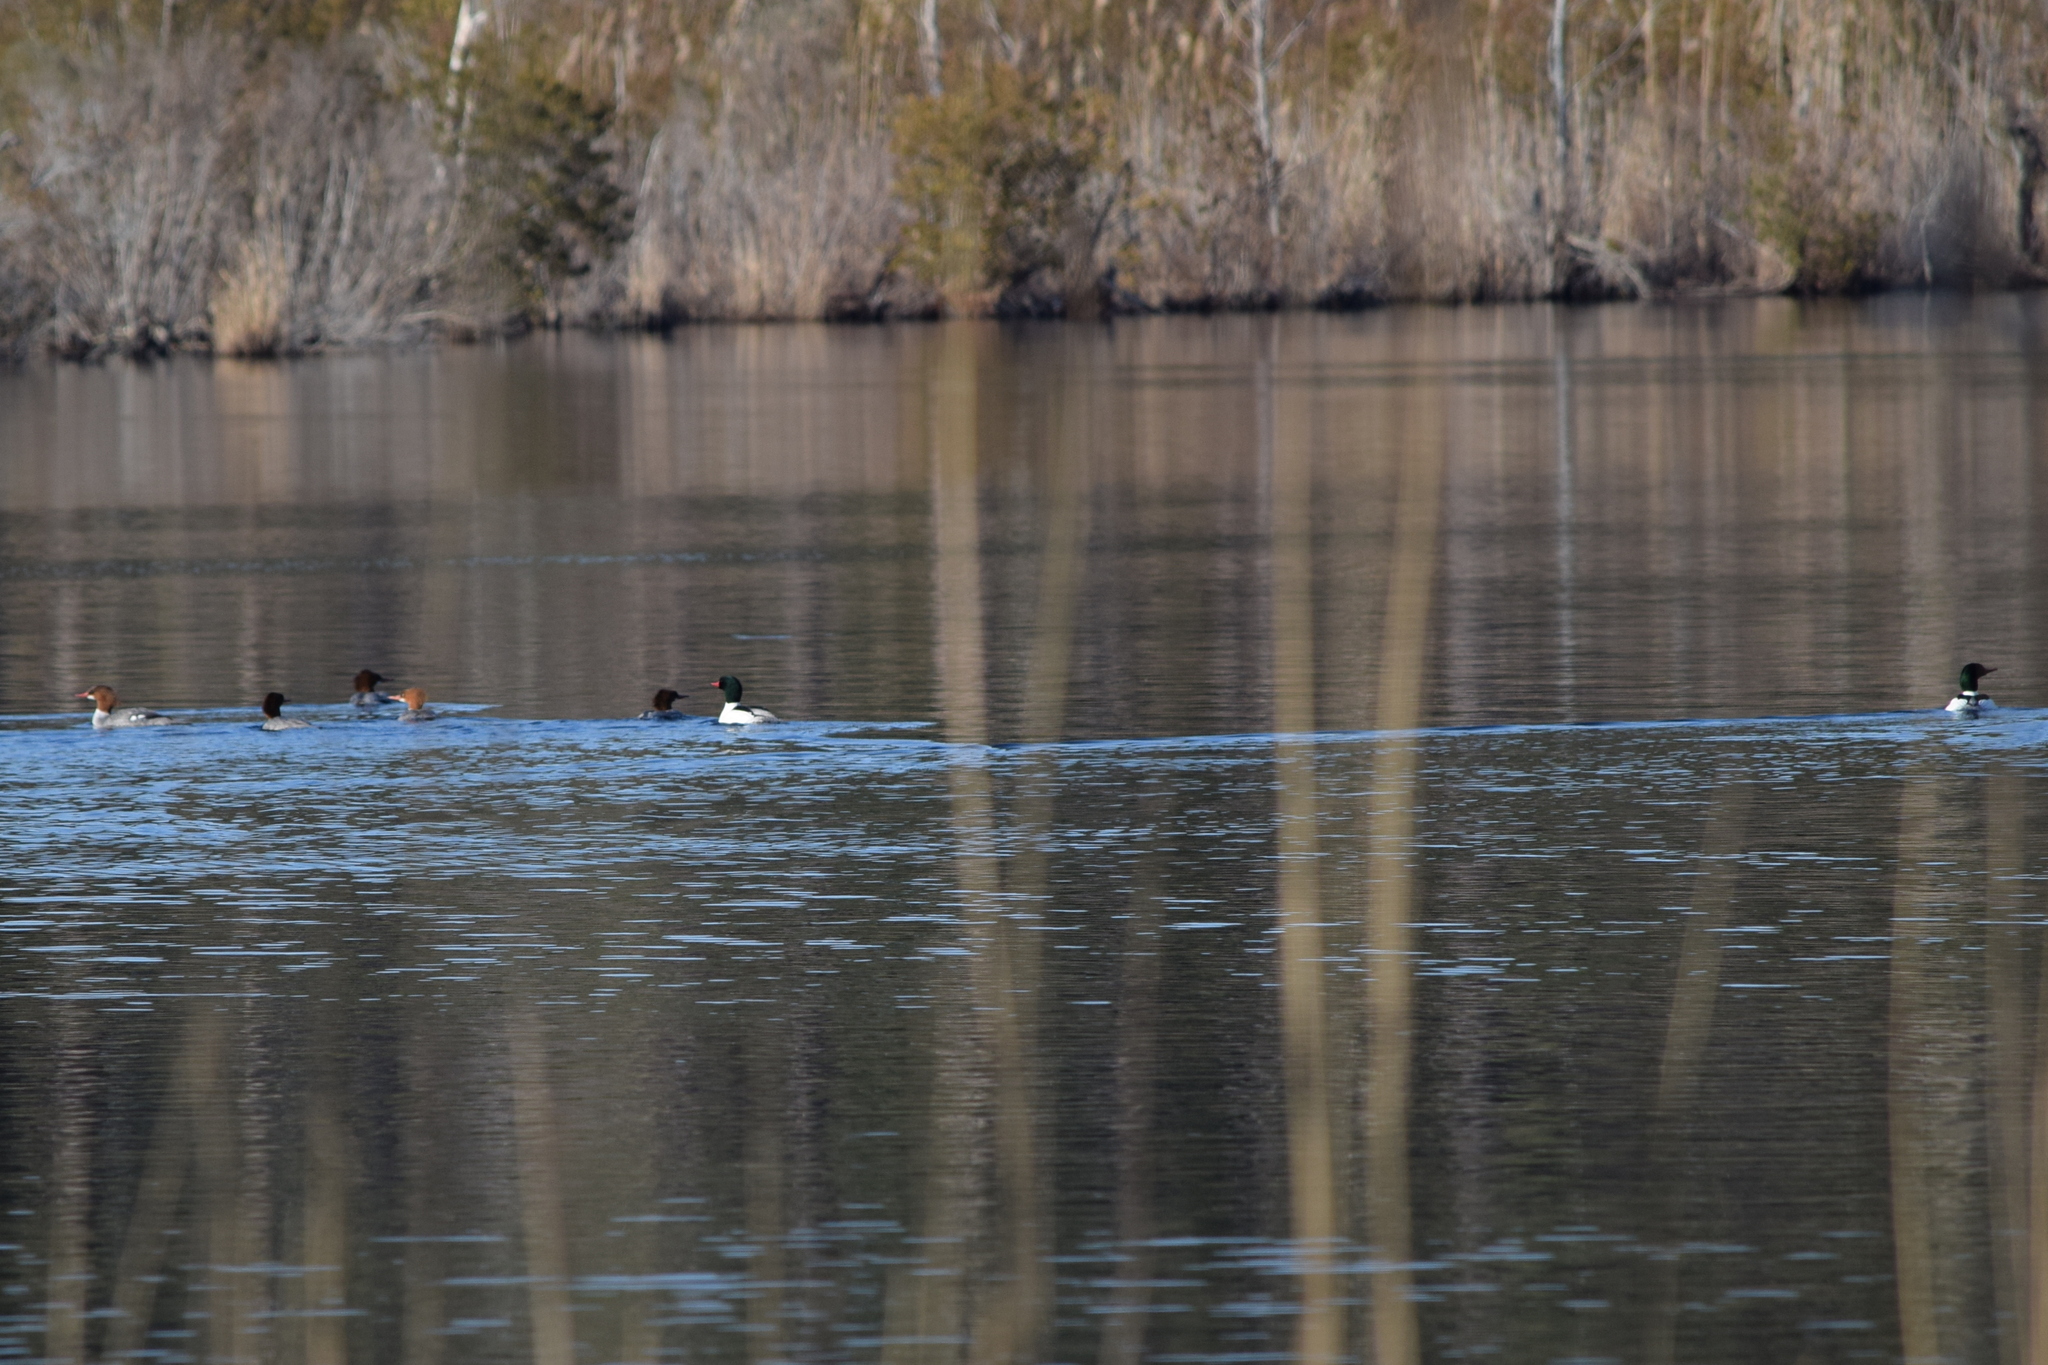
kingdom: Animalia
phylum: Chordata
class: Aves
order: Anseriformes
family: Anatidae
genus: Mergus
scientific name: Mergus merganser
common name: Common merganser
